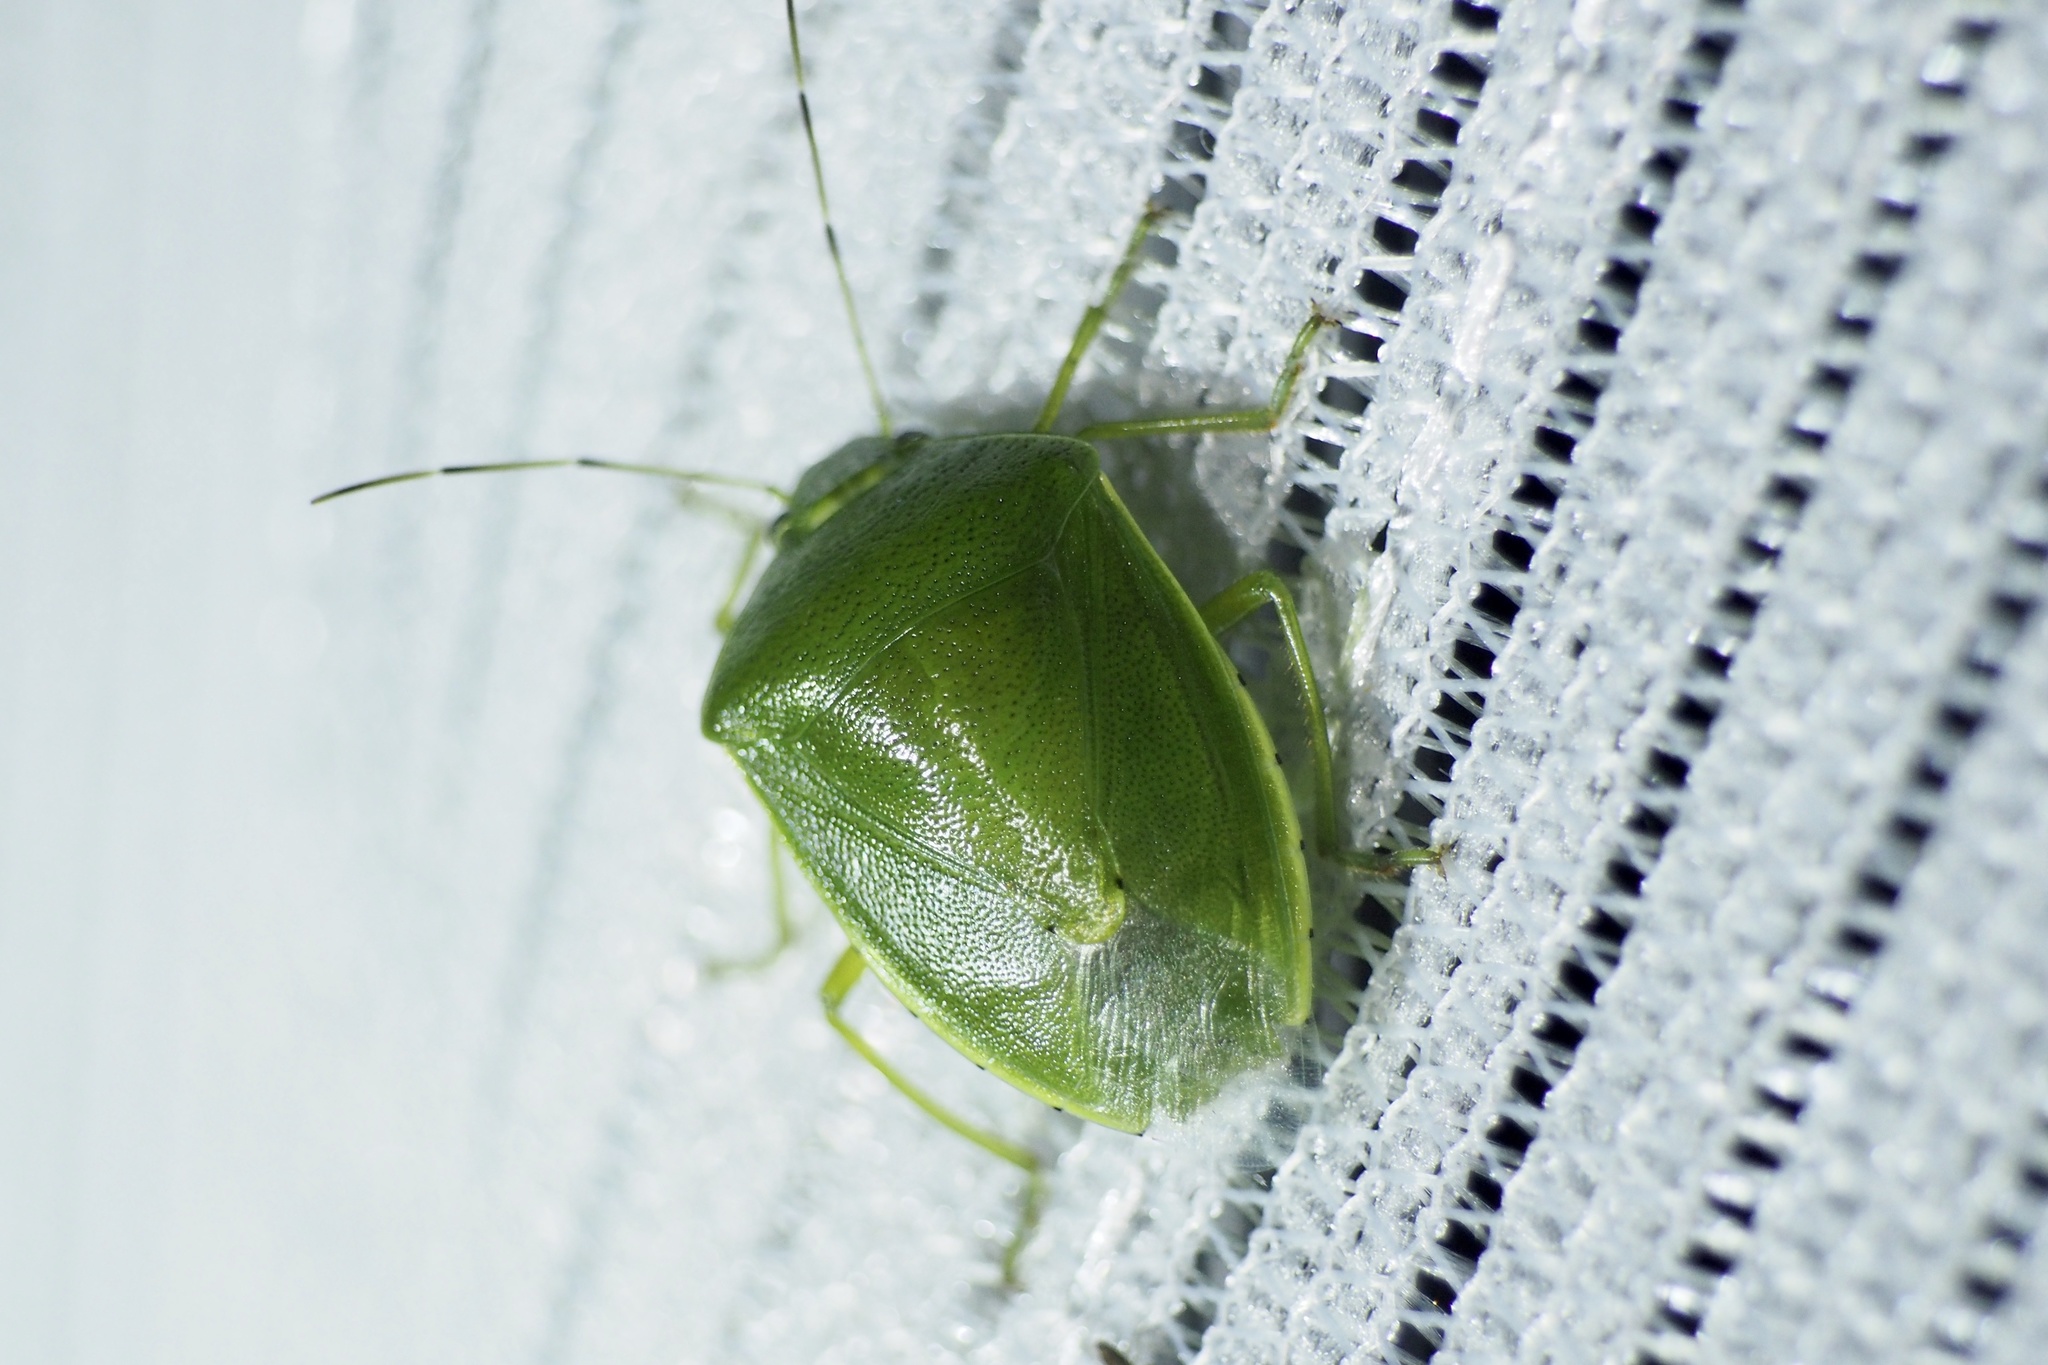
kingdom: Animalia
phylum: Arthropoda
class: Insecta
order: Hemiptera
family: Pentatomidae
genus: Glaucias
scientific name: Glaucias subpunctatus
